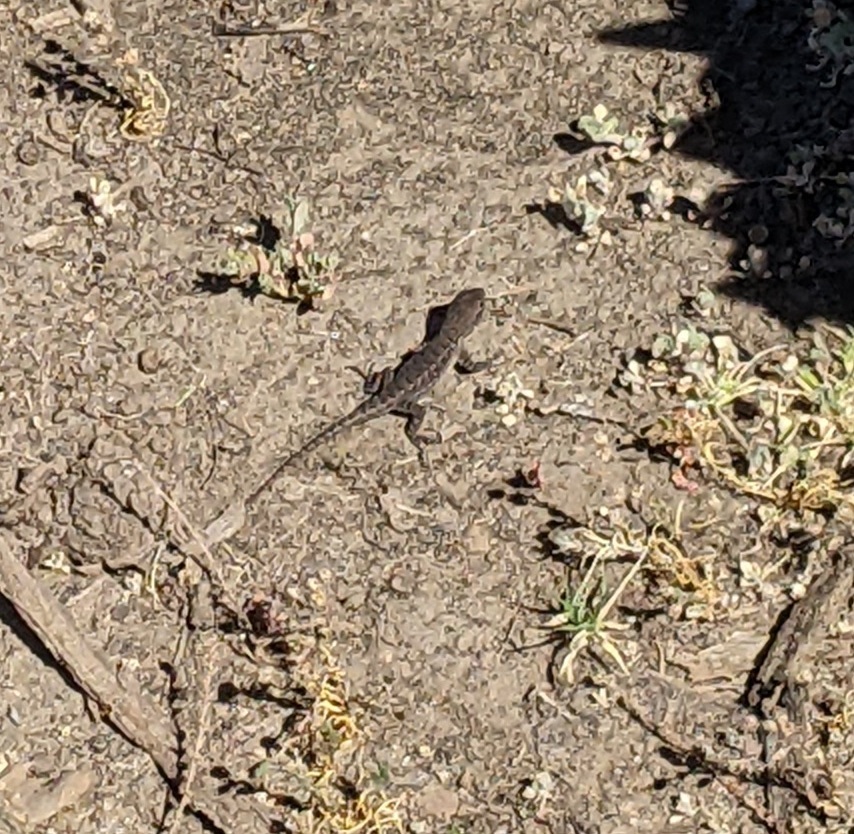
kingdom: Animalia
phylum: Chordata
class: Squamata
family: Phrynosomatidae
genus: Sceloporus
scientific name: Sceloporus occidentalis
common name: Western fence lizard
